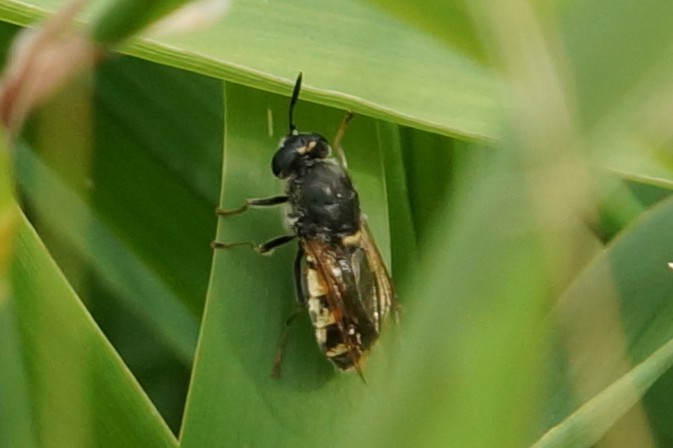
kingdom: Animalia
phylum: Arthropoda
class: Insecta
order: Diptera
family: Stratiomyidae
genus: Stratiomys
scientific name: Stratiomys singularior
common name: Flecked general
